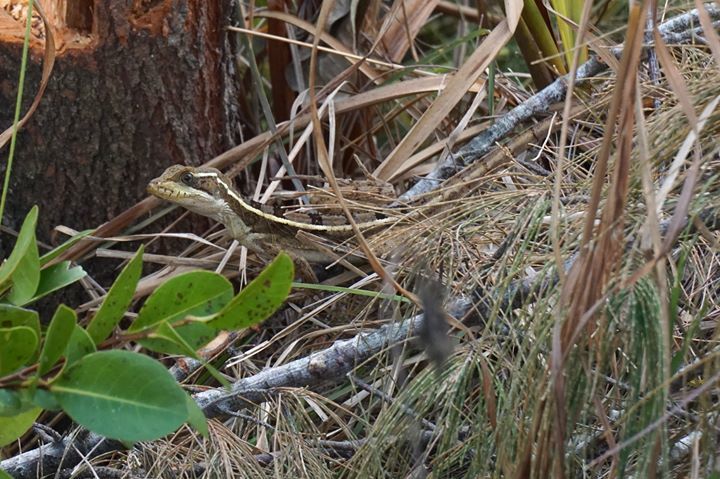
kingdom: Animalia
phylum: Chordata
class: Squamata
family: Corytophanidae
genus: Basiliscus
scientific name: Basiliscus vittatus
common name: Brown basilisk
